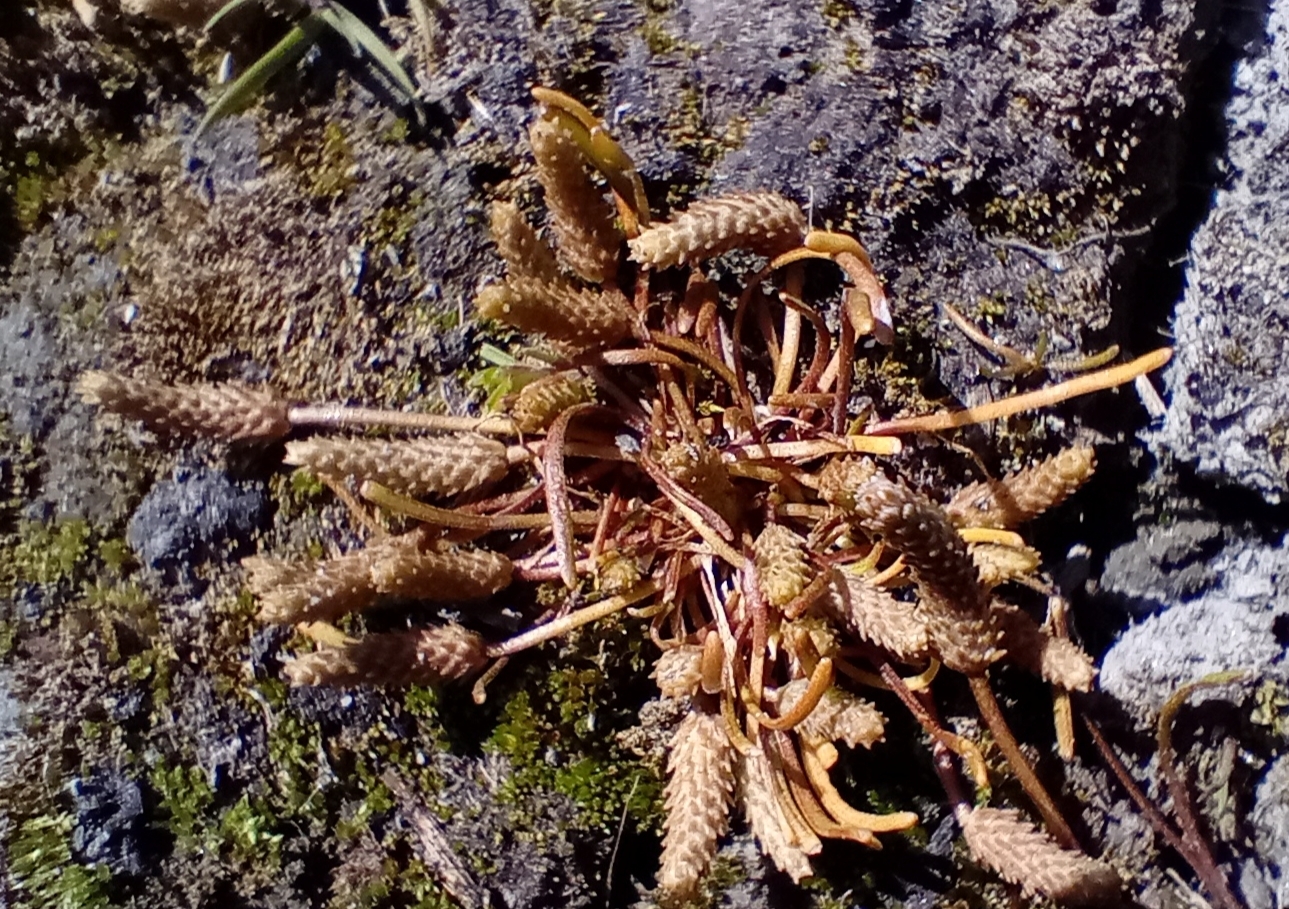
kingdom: Plantae
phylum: Tracheophyta
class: Magnoliopsida
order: Ranunculales
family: Ranunculaceae
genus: Myosurus
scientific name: Myosurus minimus
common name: Mousetail
